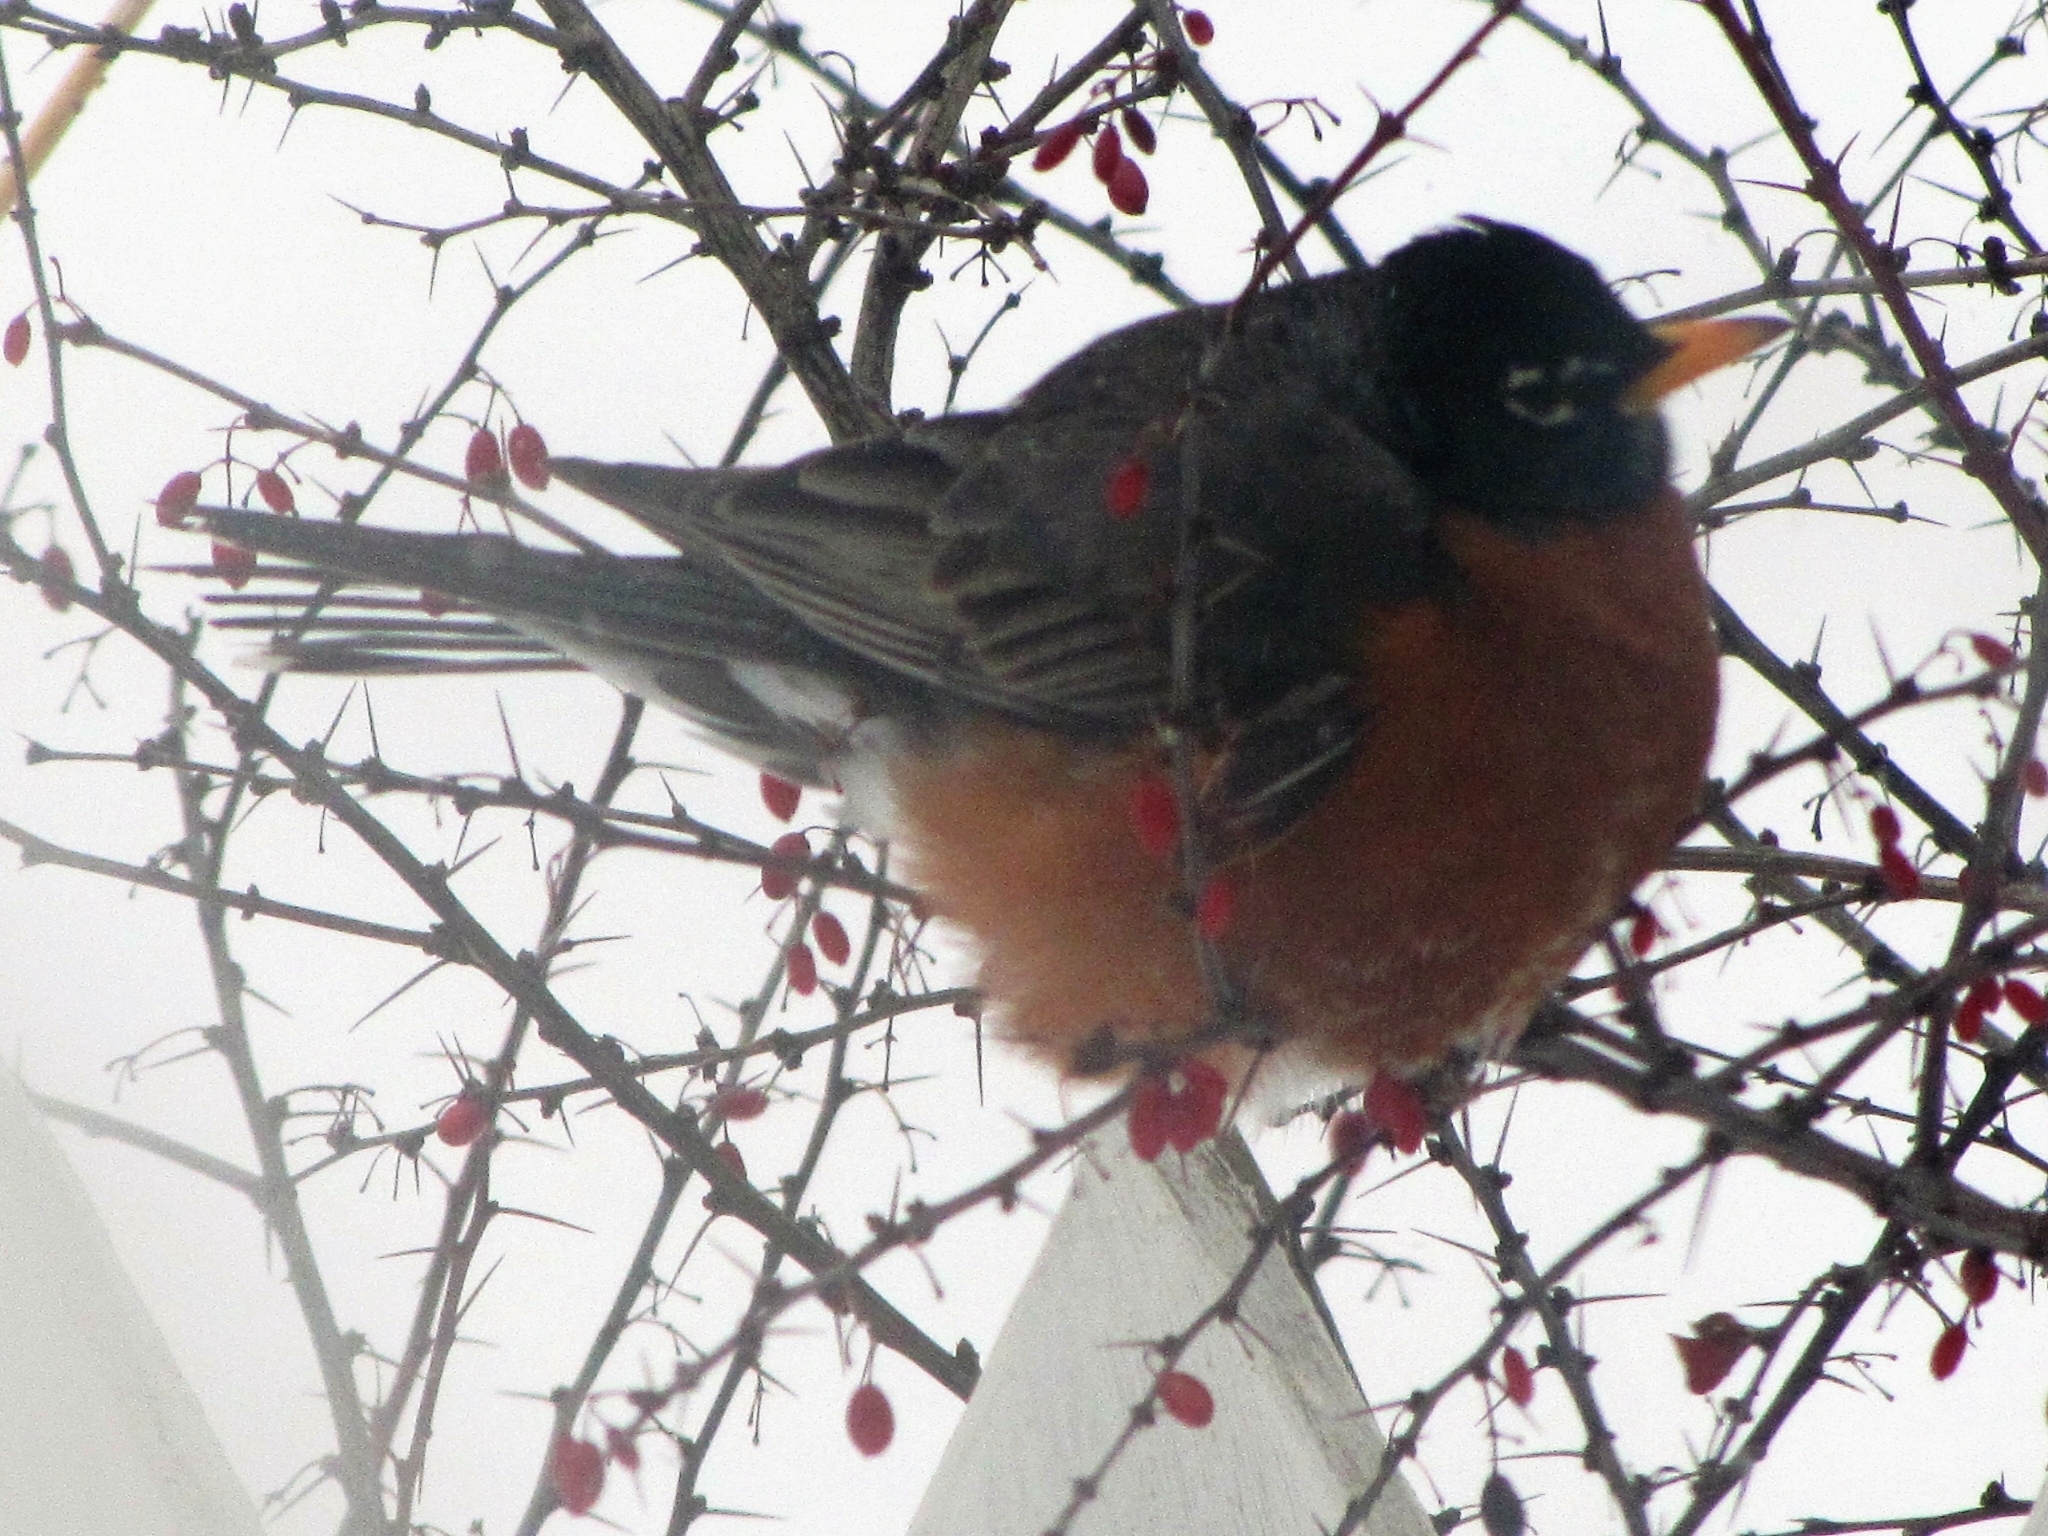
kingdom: Animalia
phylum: Chordata
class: Aves
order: Passeriformes
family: Turdidae
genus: Turdus
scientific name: Turdus migratorius
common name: American robin
